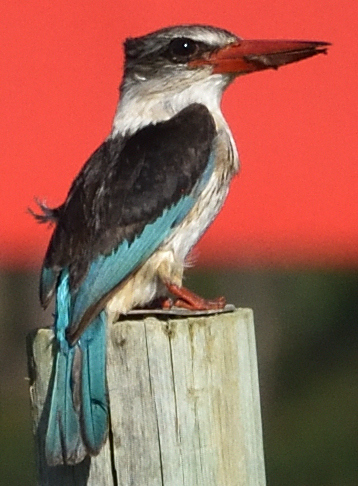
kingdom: Animalia
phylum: Chordata
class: Aves
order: Coraciiformes
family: Alcedinidae
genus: Halcyon
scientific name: Halcyon albiventris
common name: Brown-hooded kingfisher
